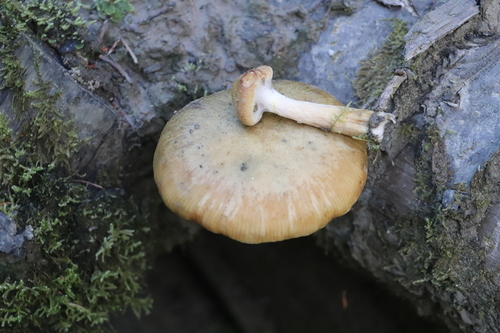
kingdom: Fungi
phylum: Basidiomycota
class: Agaricomycetes
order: Agaricales
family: Physalacriaceae
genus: Armillaria
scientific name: Armillaria cepistipes
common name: Mullet honey fungus
